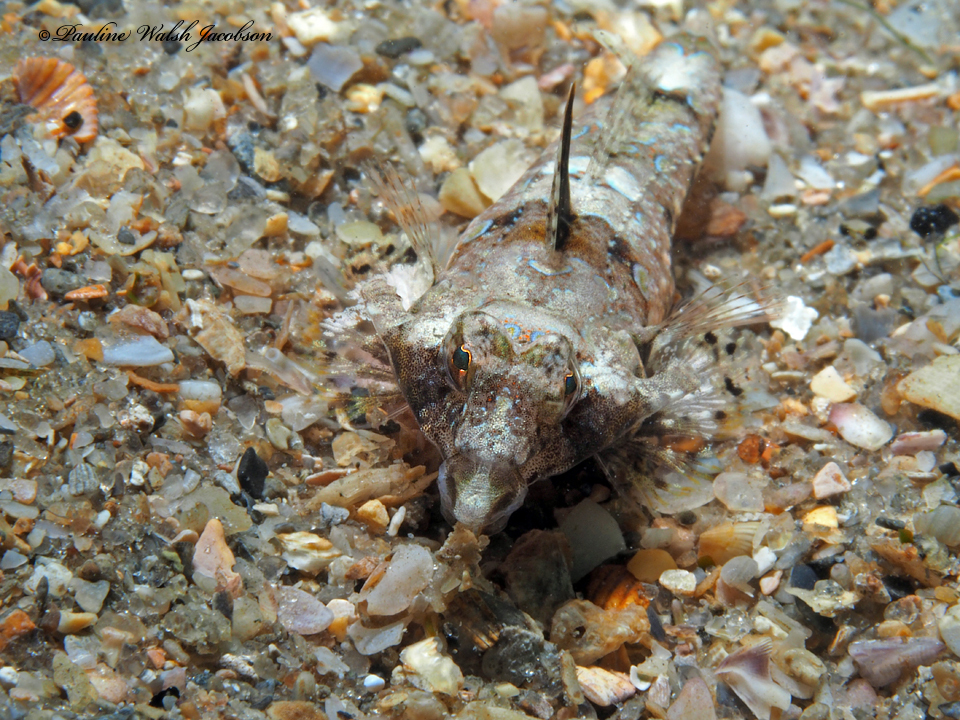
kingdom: Animalia
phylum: Chordata
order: Perciformes
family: Callionymidae
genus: Callionymus
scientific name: Callionymus bairdi
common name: Lancer dragonet
